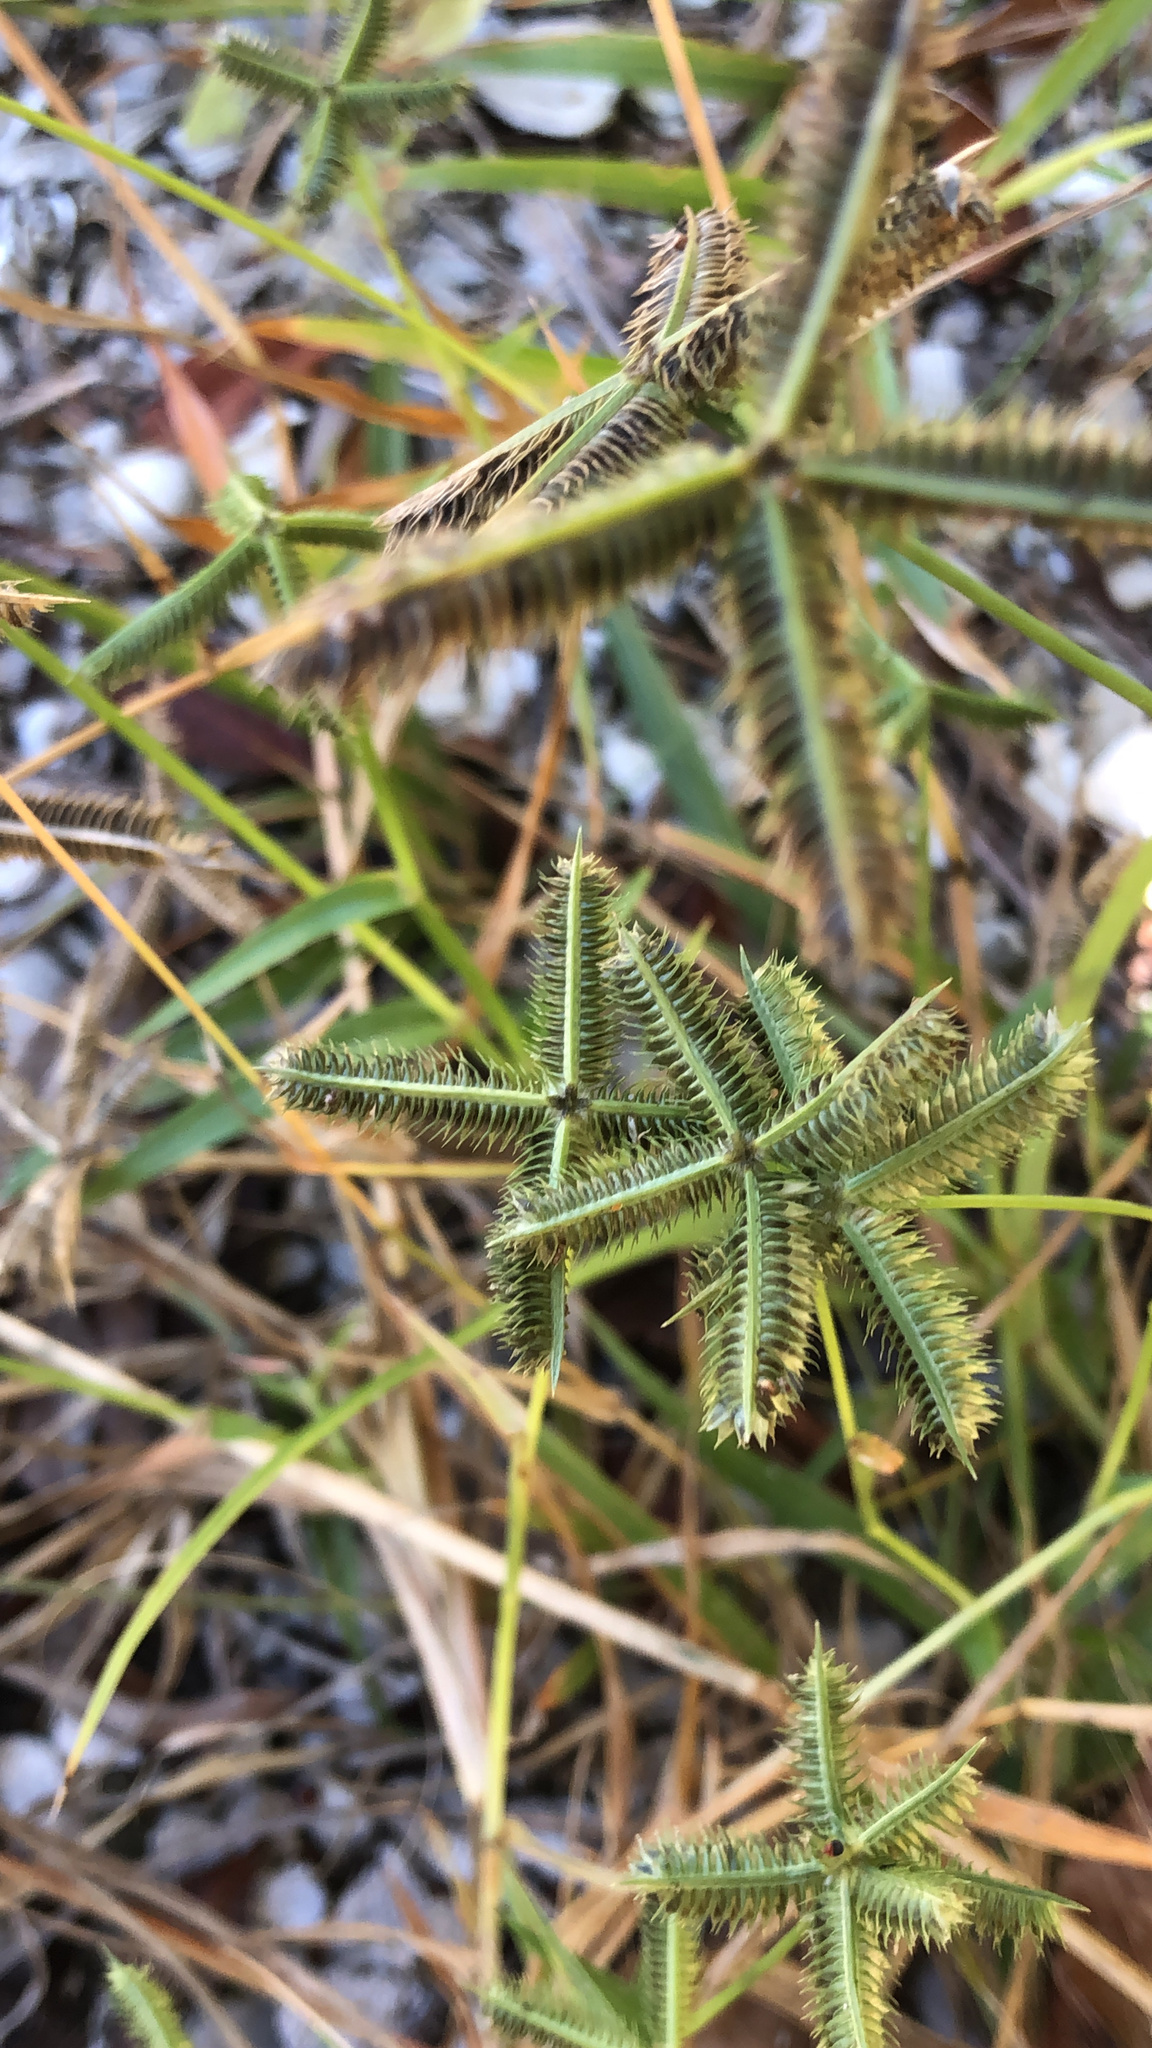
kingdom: Plantae
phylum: Tracheophyta
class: Liliopsida
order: Poales
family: Poaceae
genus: Dactyloctenium
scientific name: Dactyloctenium aegyptium
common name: Egyptian grass
